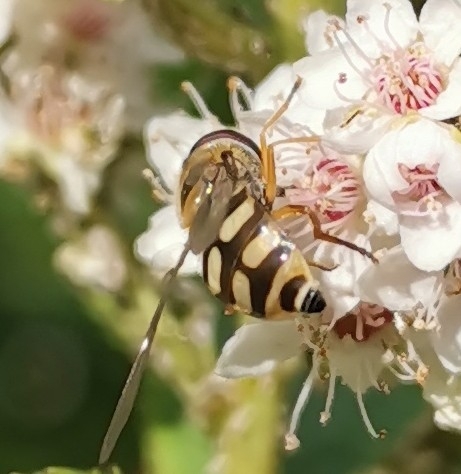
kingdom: Animalia
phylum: Arthropoda
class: Insecta
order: Diptera
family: Syrphidae
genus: Eupeodes
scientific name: Eupeodes corollae
